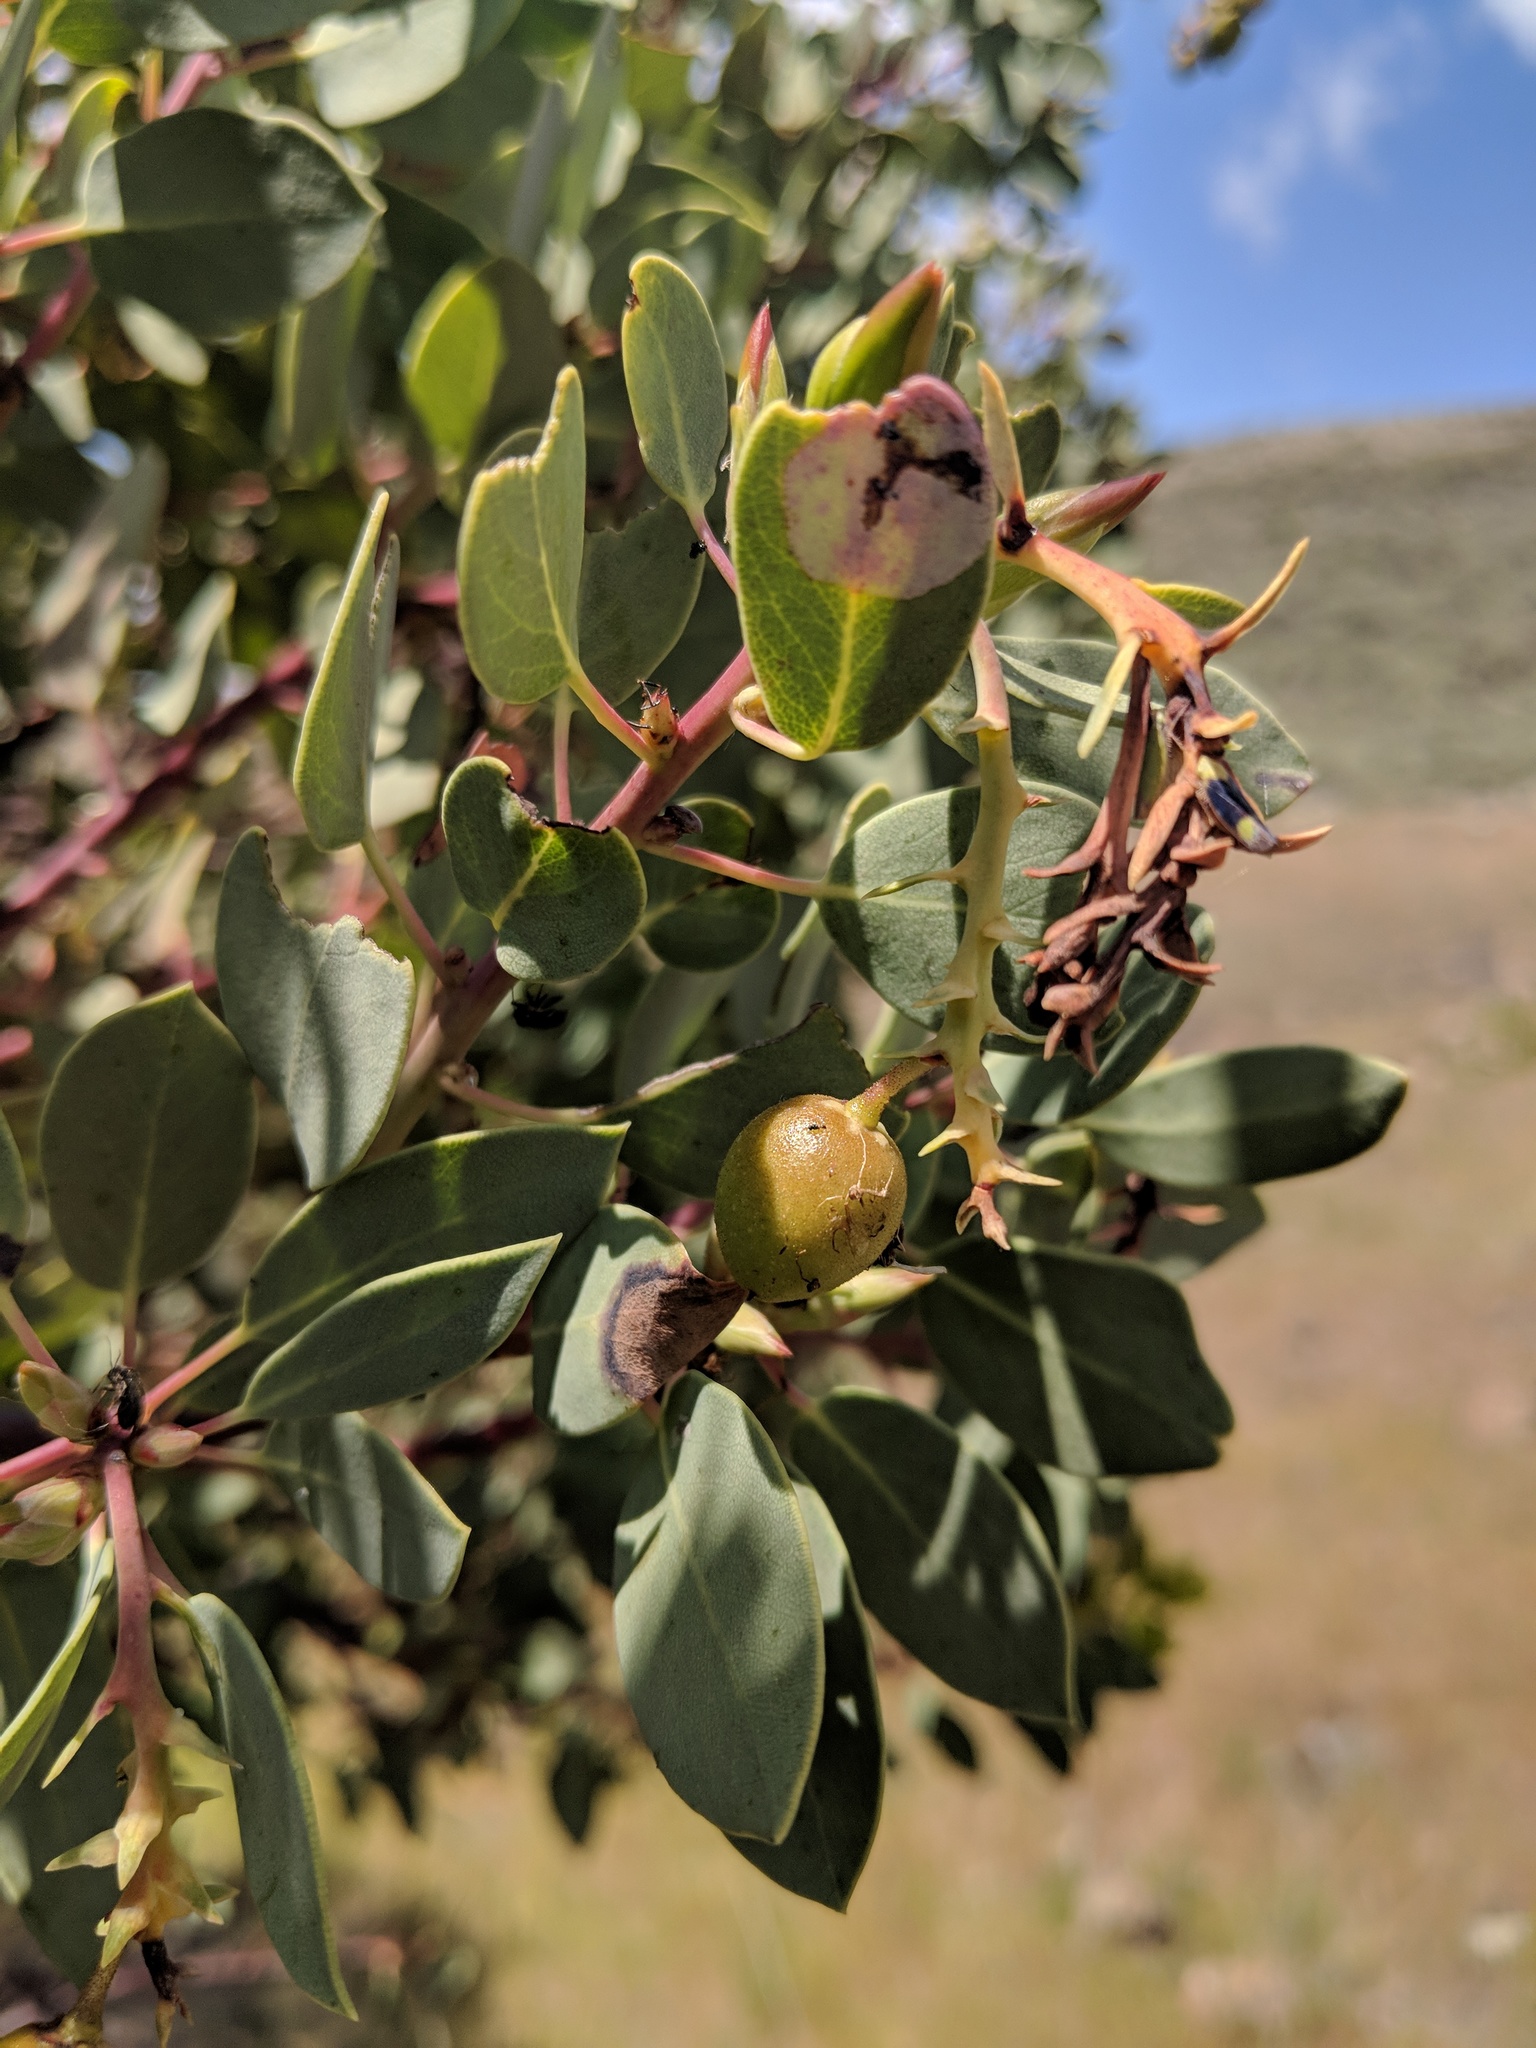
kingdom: Plantae
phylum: Tracheophyta
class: Magnoliopsida
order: Ericales
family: Ericaceae
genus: Arctostaphylos
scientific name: Arctostaphylos glauca
